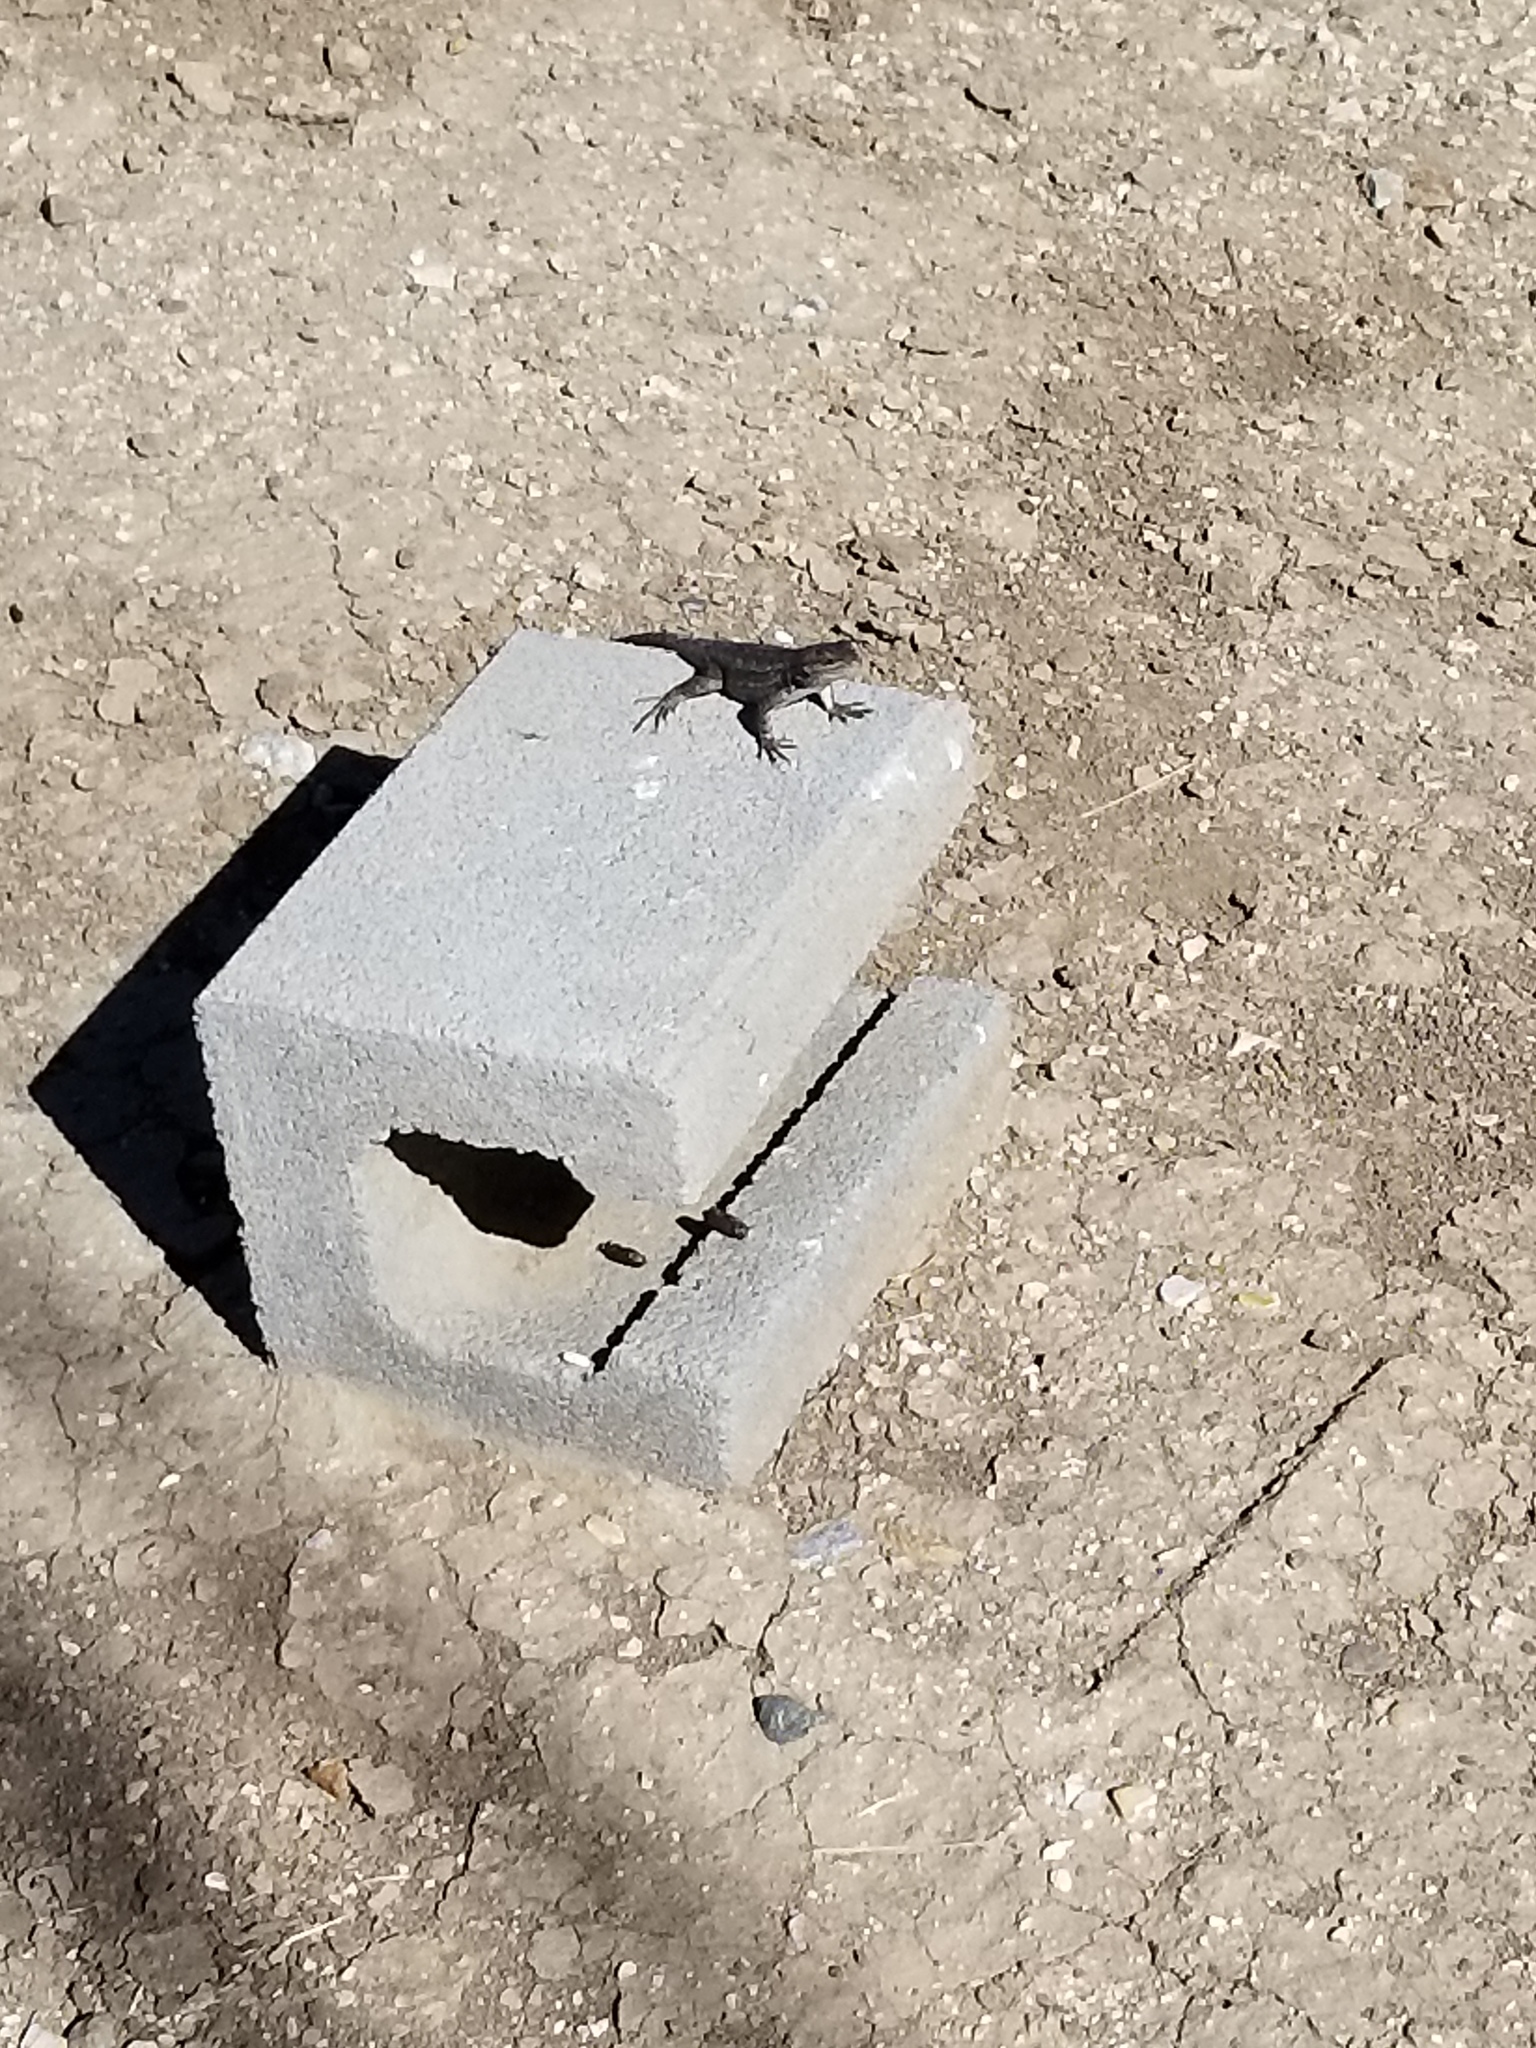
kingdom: Animalia
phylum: Chordata
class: Squamata
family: Phrynosomatidae
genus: Sceloporus
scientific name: Sceloporus occidentalis
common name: Western fence lizard
